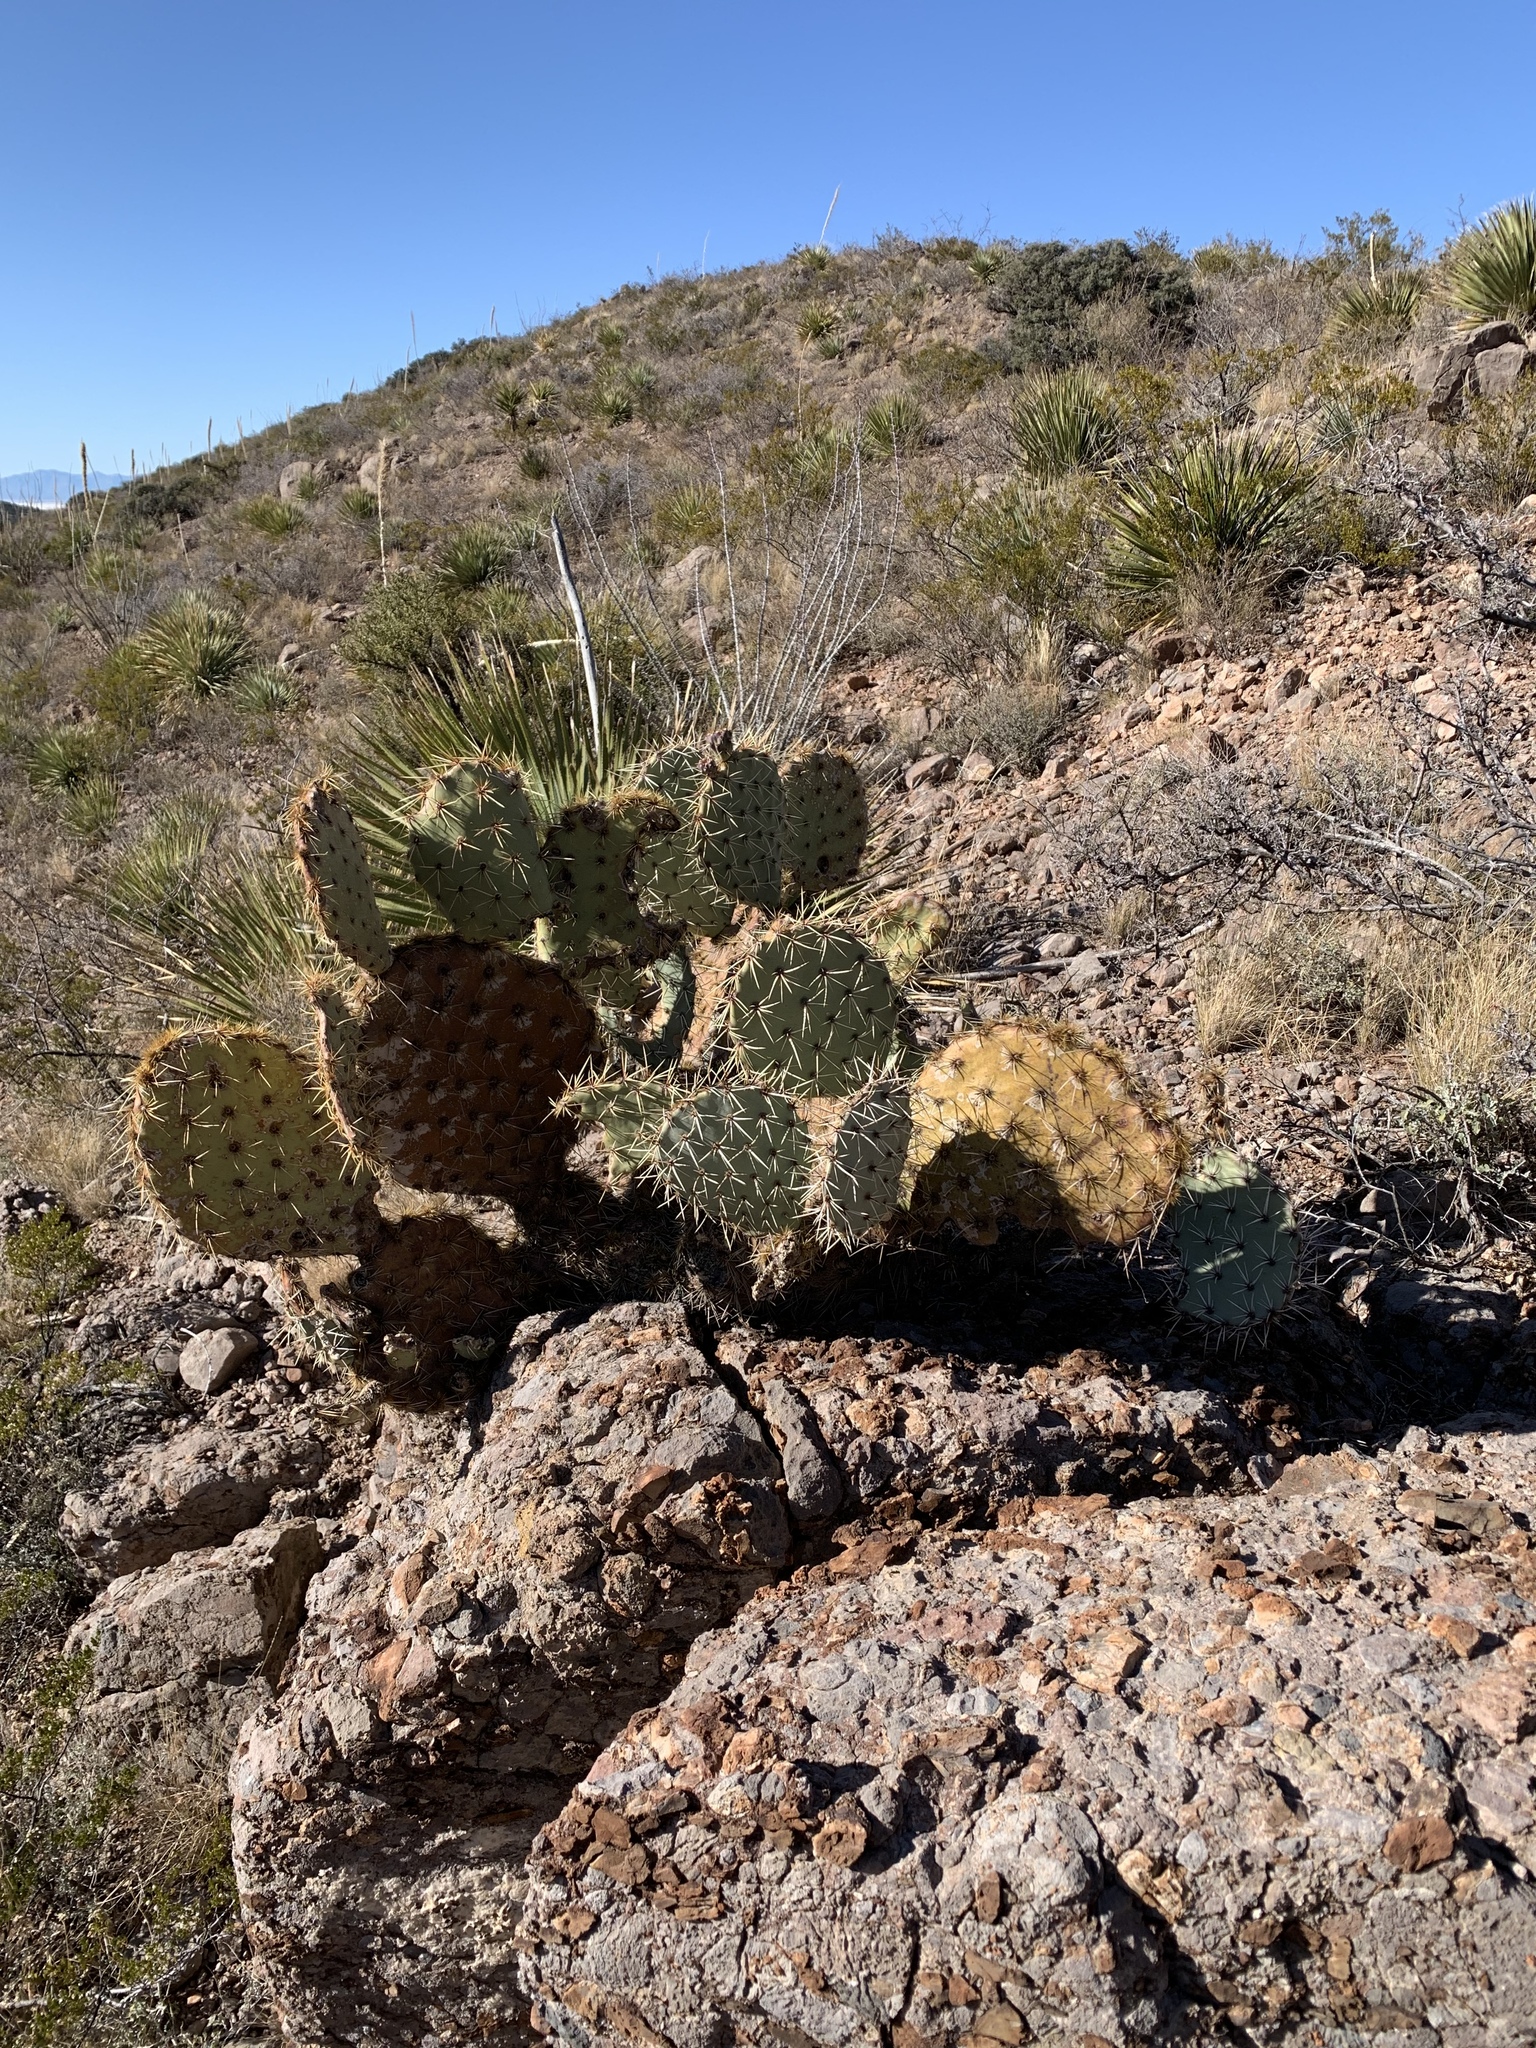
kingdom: Plantae
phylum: Tracheophyta
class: Magnoliopsida
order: Caryophyllales
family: Cactaceae
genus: Opuntia
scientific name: Opuntia engelmannii
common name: Cactus-apple
